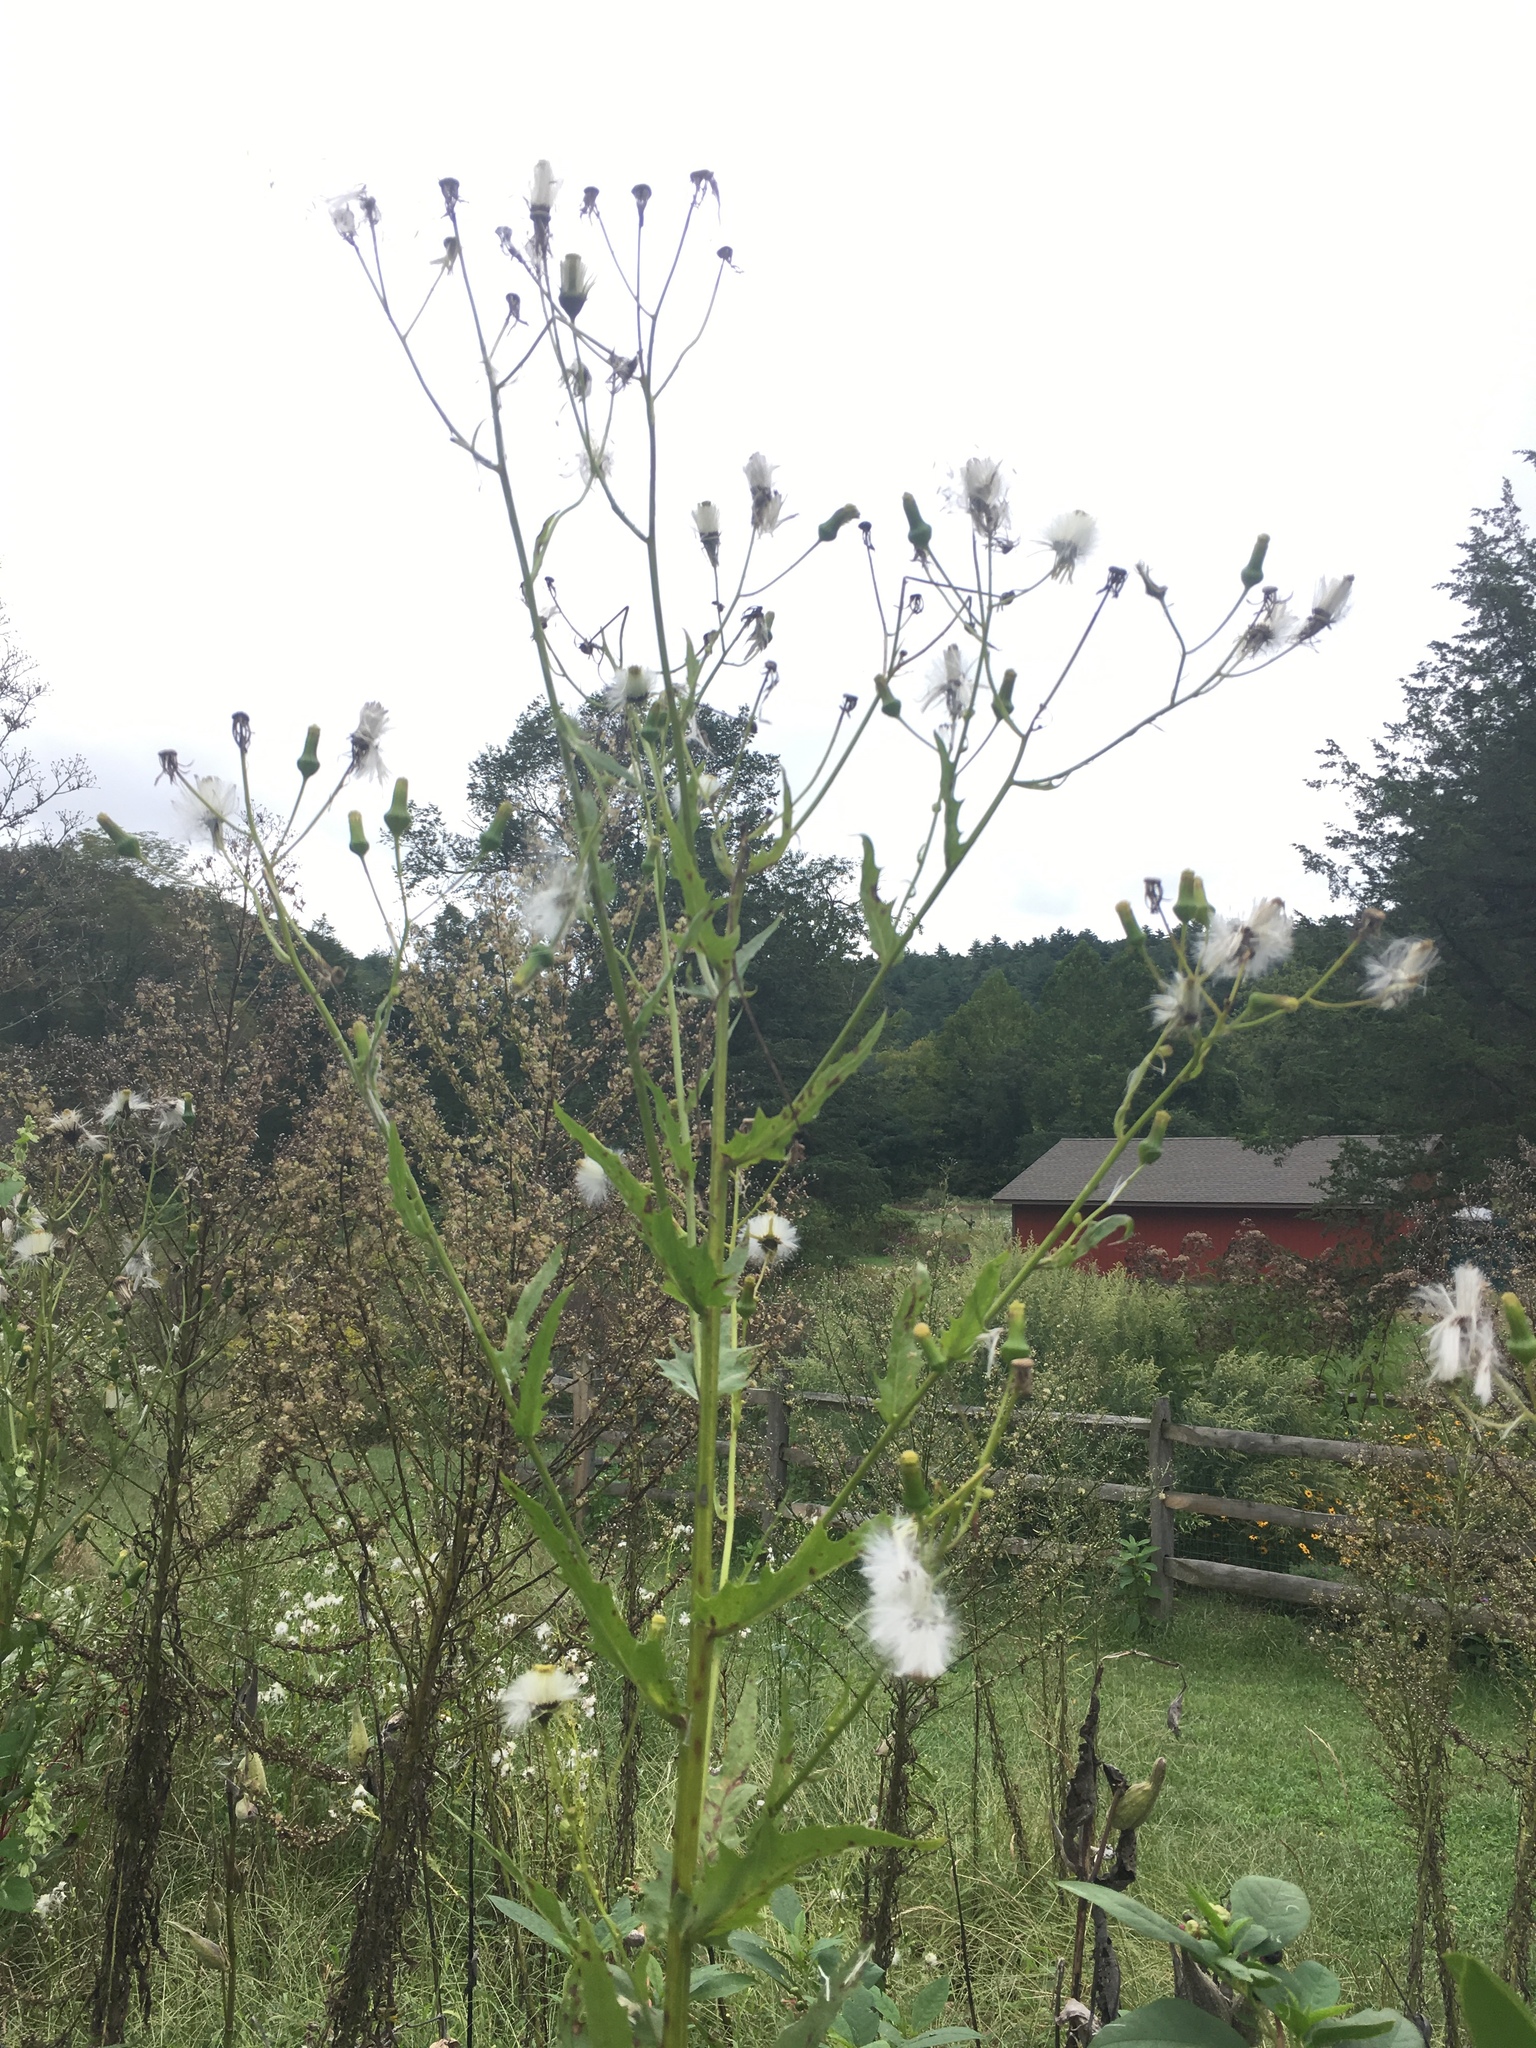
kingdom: Plantae
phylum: Tracheophyta
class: Magnoliopsida
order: Asterales
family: Asteraceae
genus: Erechtites
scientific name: Erechtites hieraciifolius
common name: American burnweed
